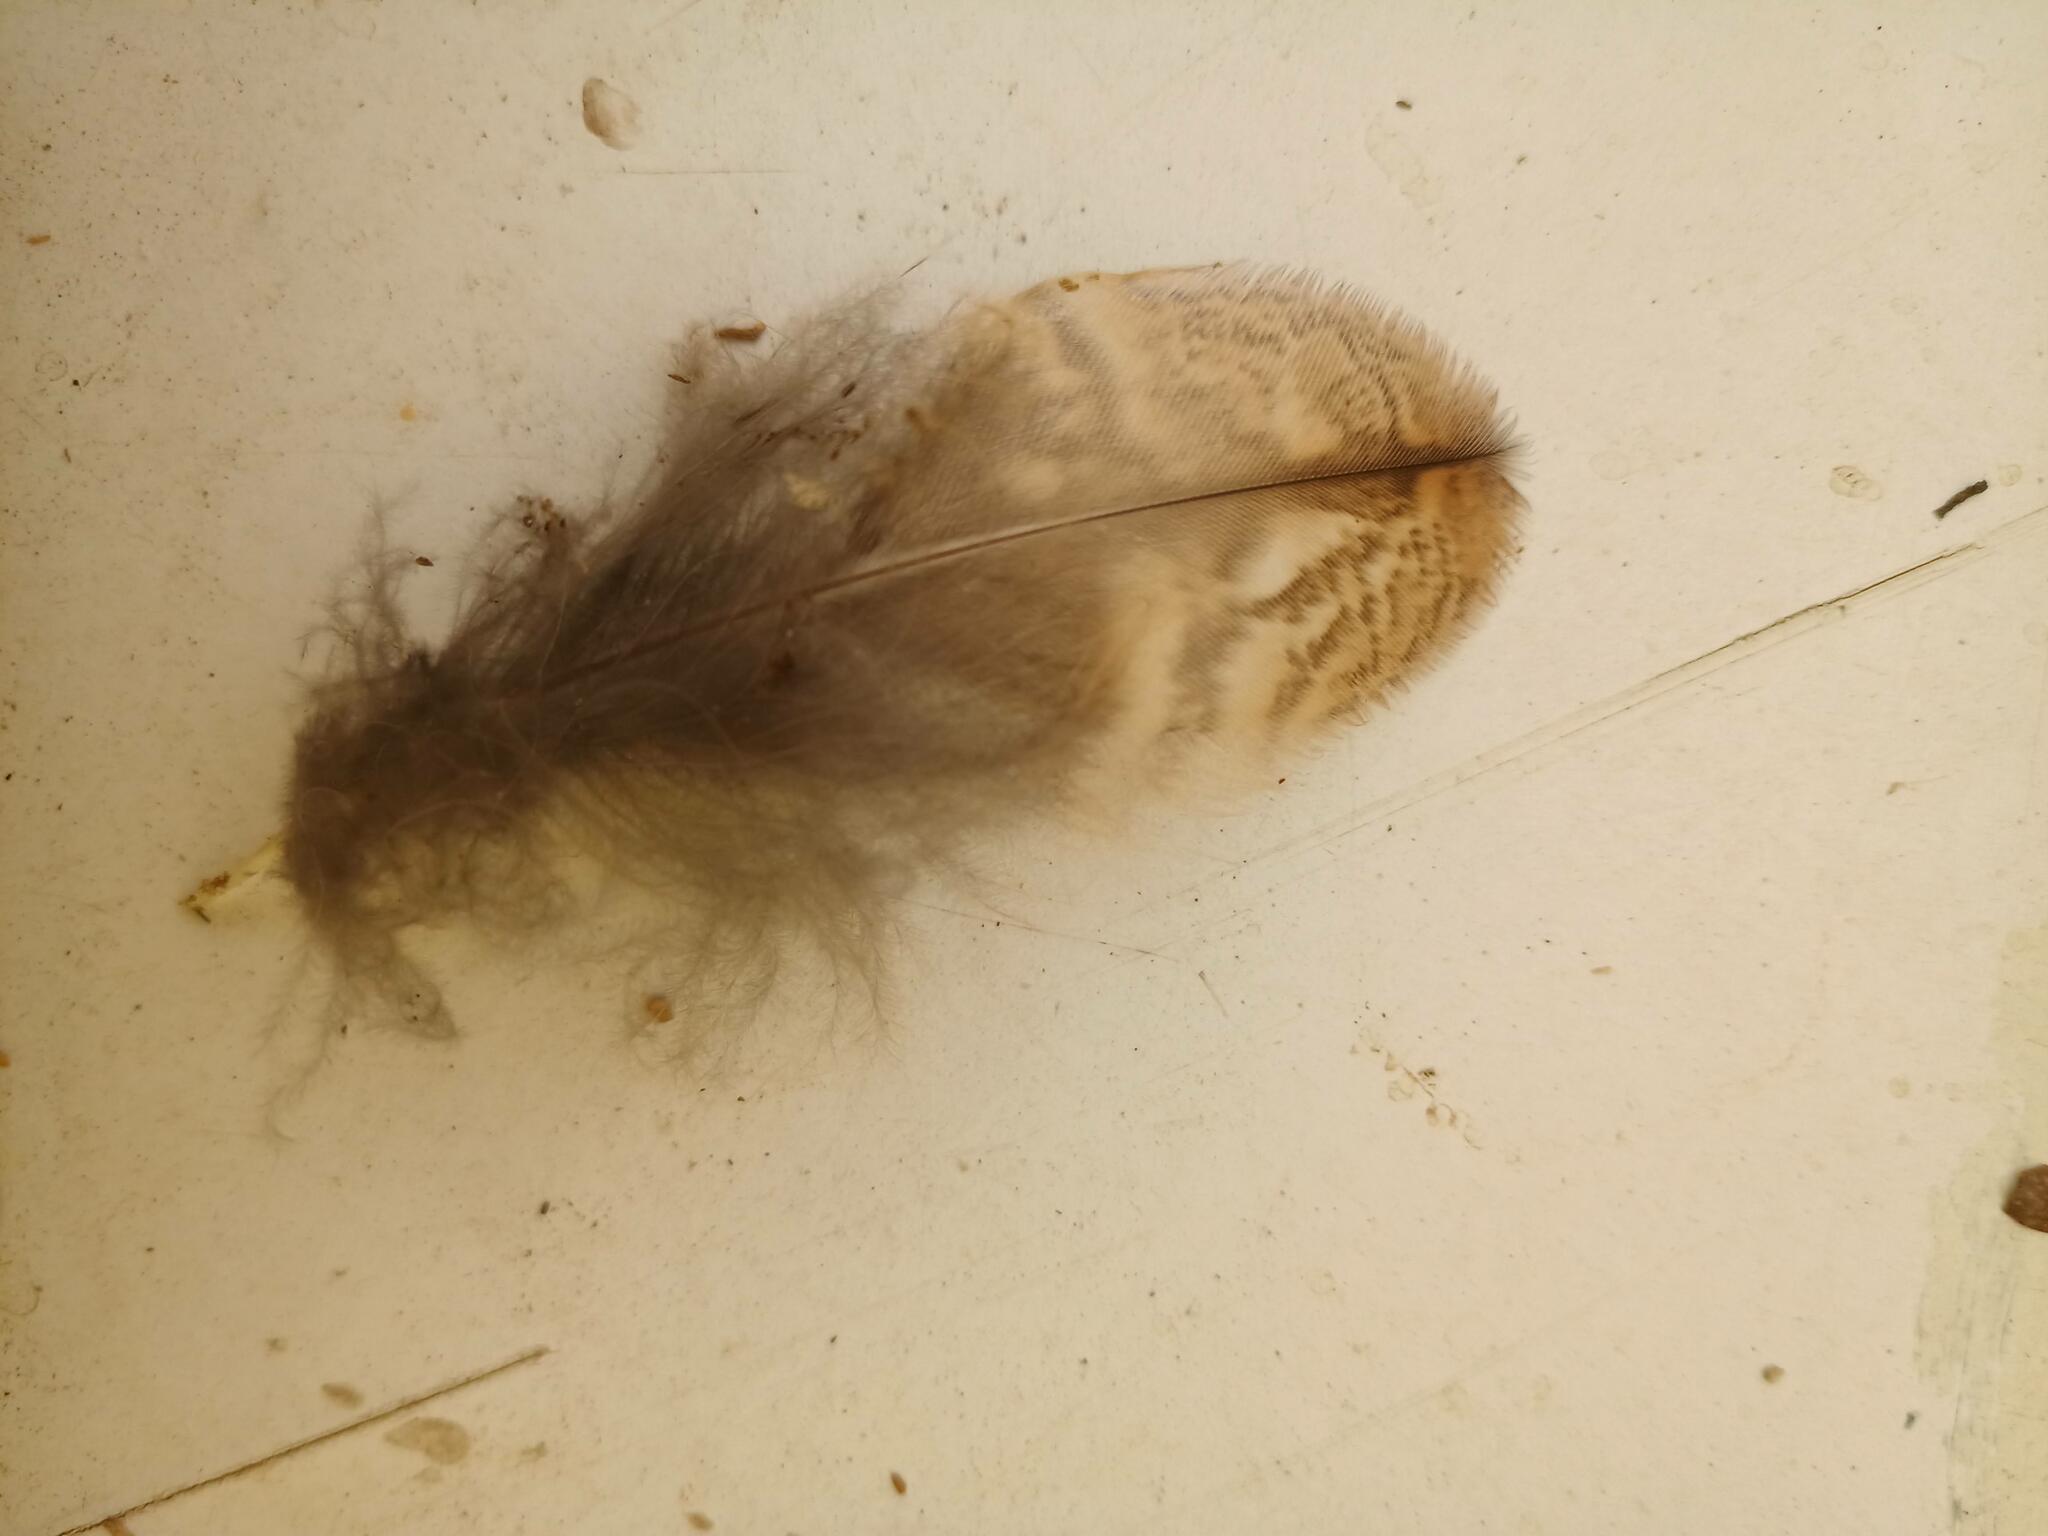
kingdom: Animalia
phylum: Chordata
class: Aves
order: Strigiformes
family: Strigidae
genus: Strix
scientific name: Strix aluco
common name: Tawny owl
